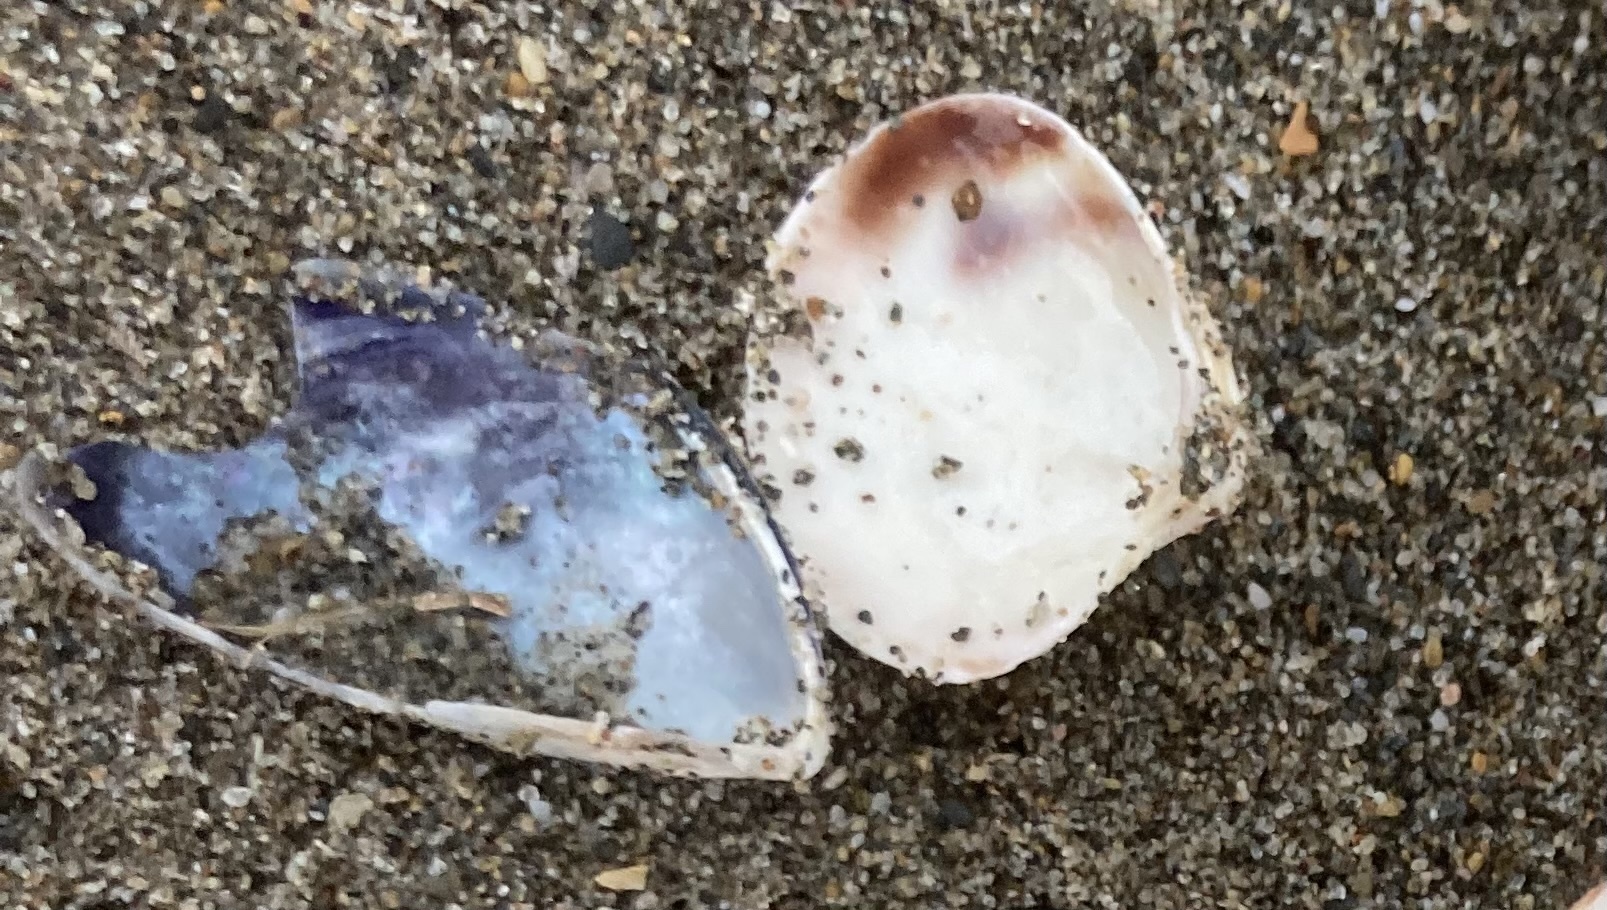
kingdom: Animalia
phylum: Mollusca
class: Bivalvia
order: Venerida
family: Veneridae
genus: Chamelea
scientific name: Chamelea gallina
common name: Chicken venus
